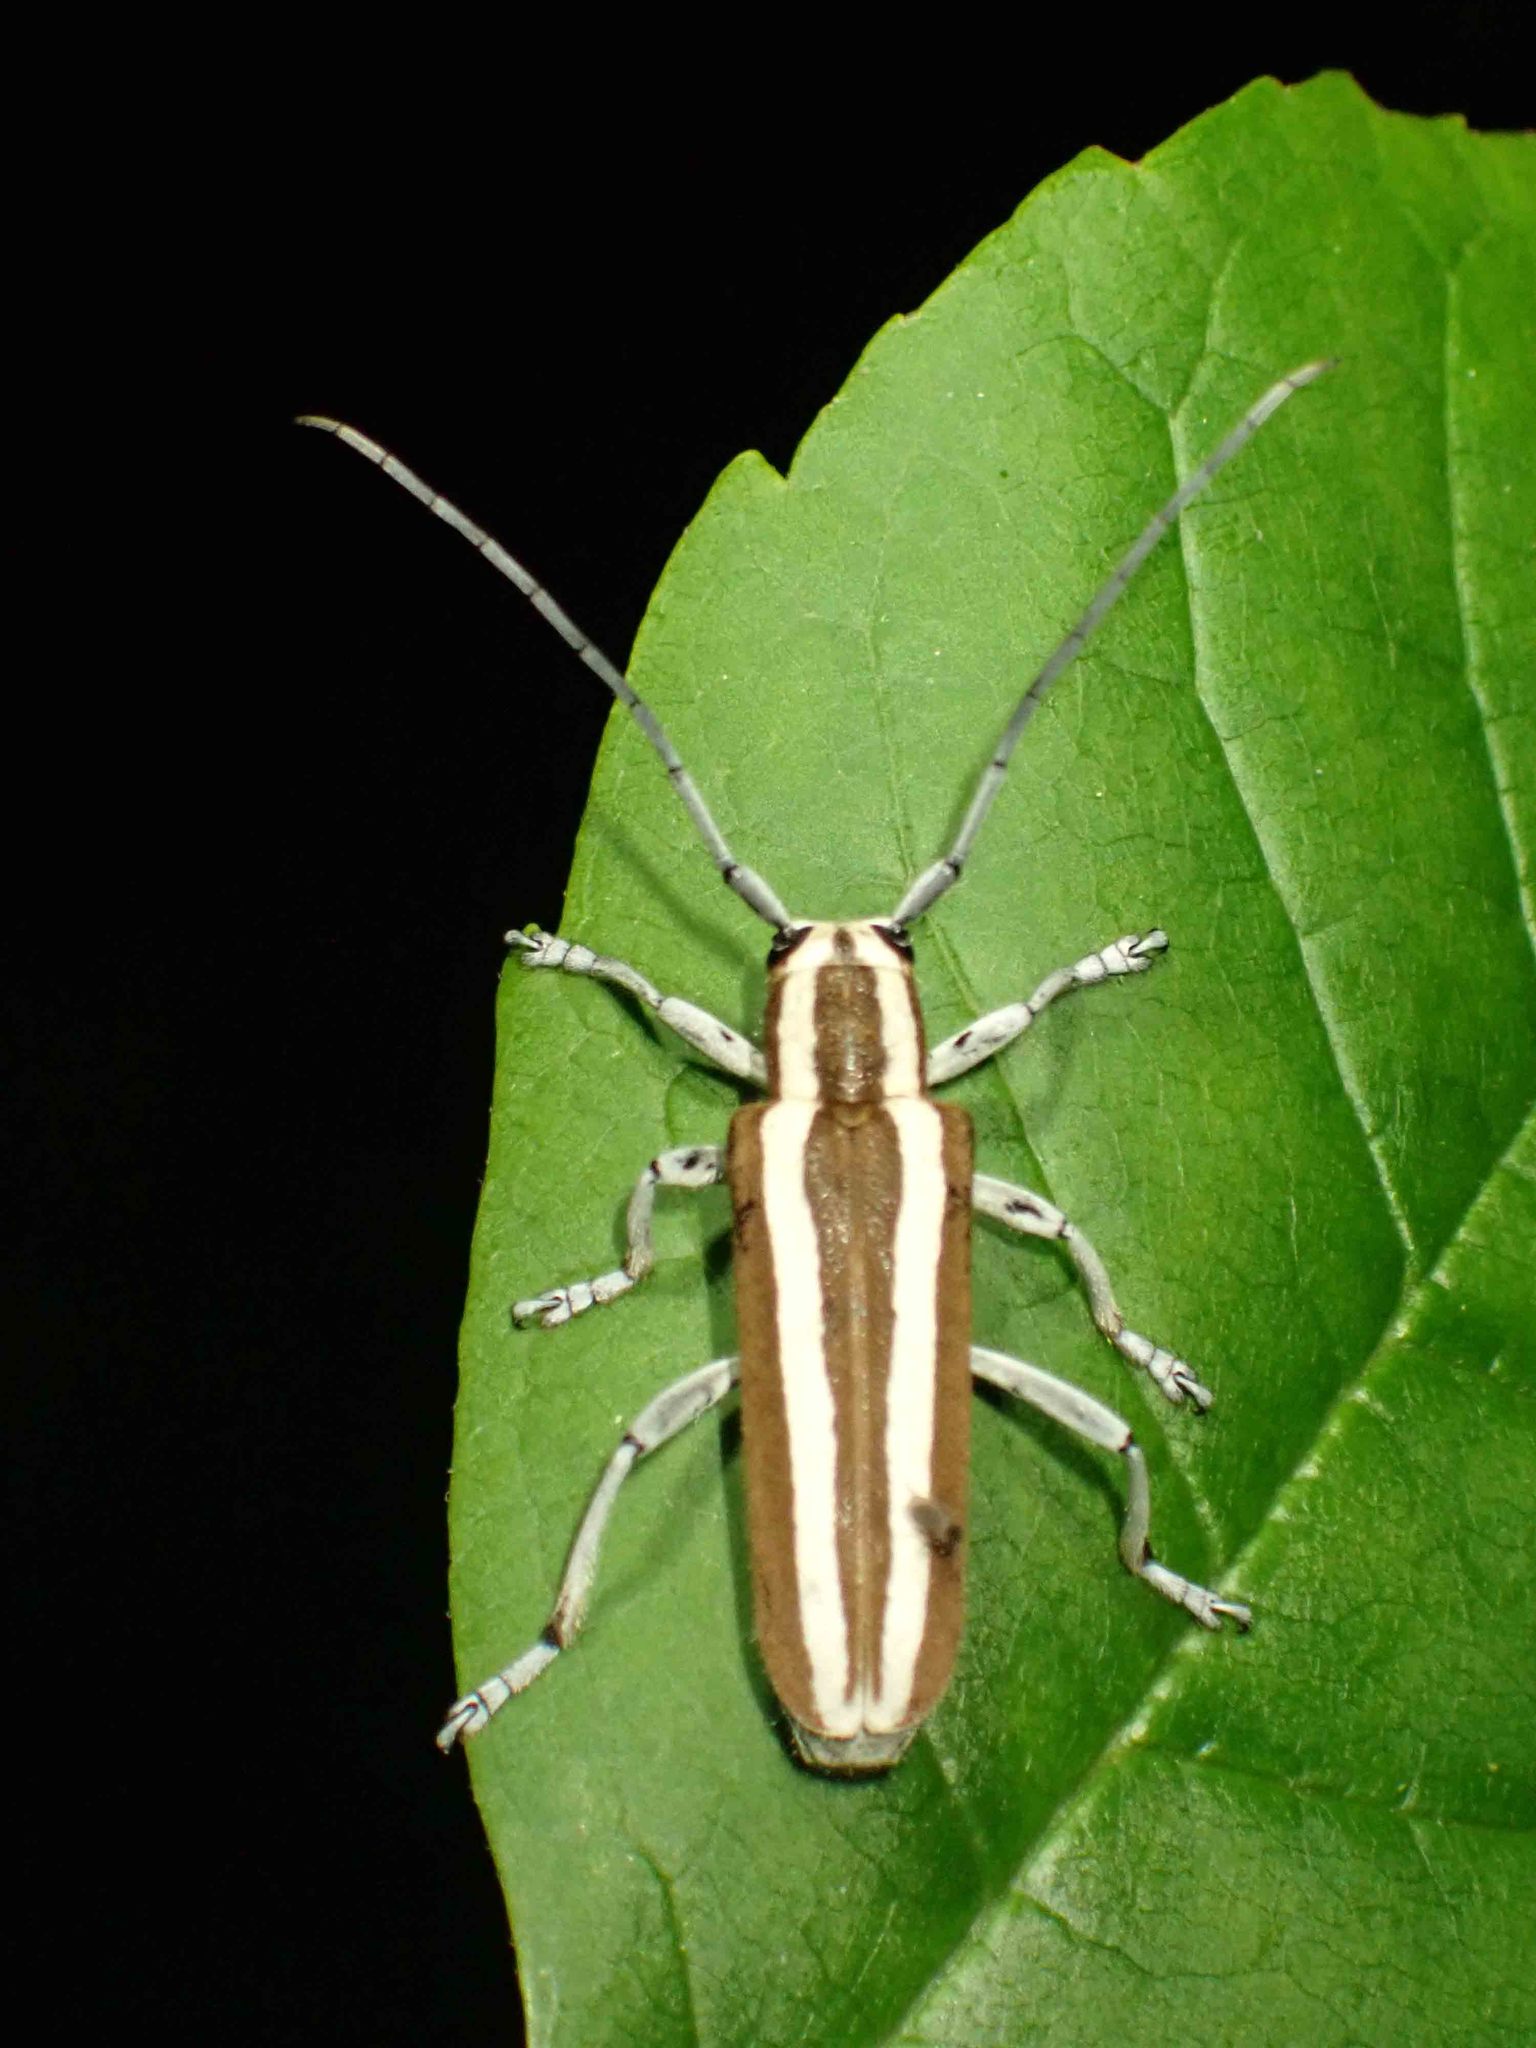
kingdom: Animalia
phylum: Arthropoda
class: Insecta
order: Coleoptera
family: Cerambycidae
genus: Saperda
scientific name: Saperda candida
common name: Round-headed borer
